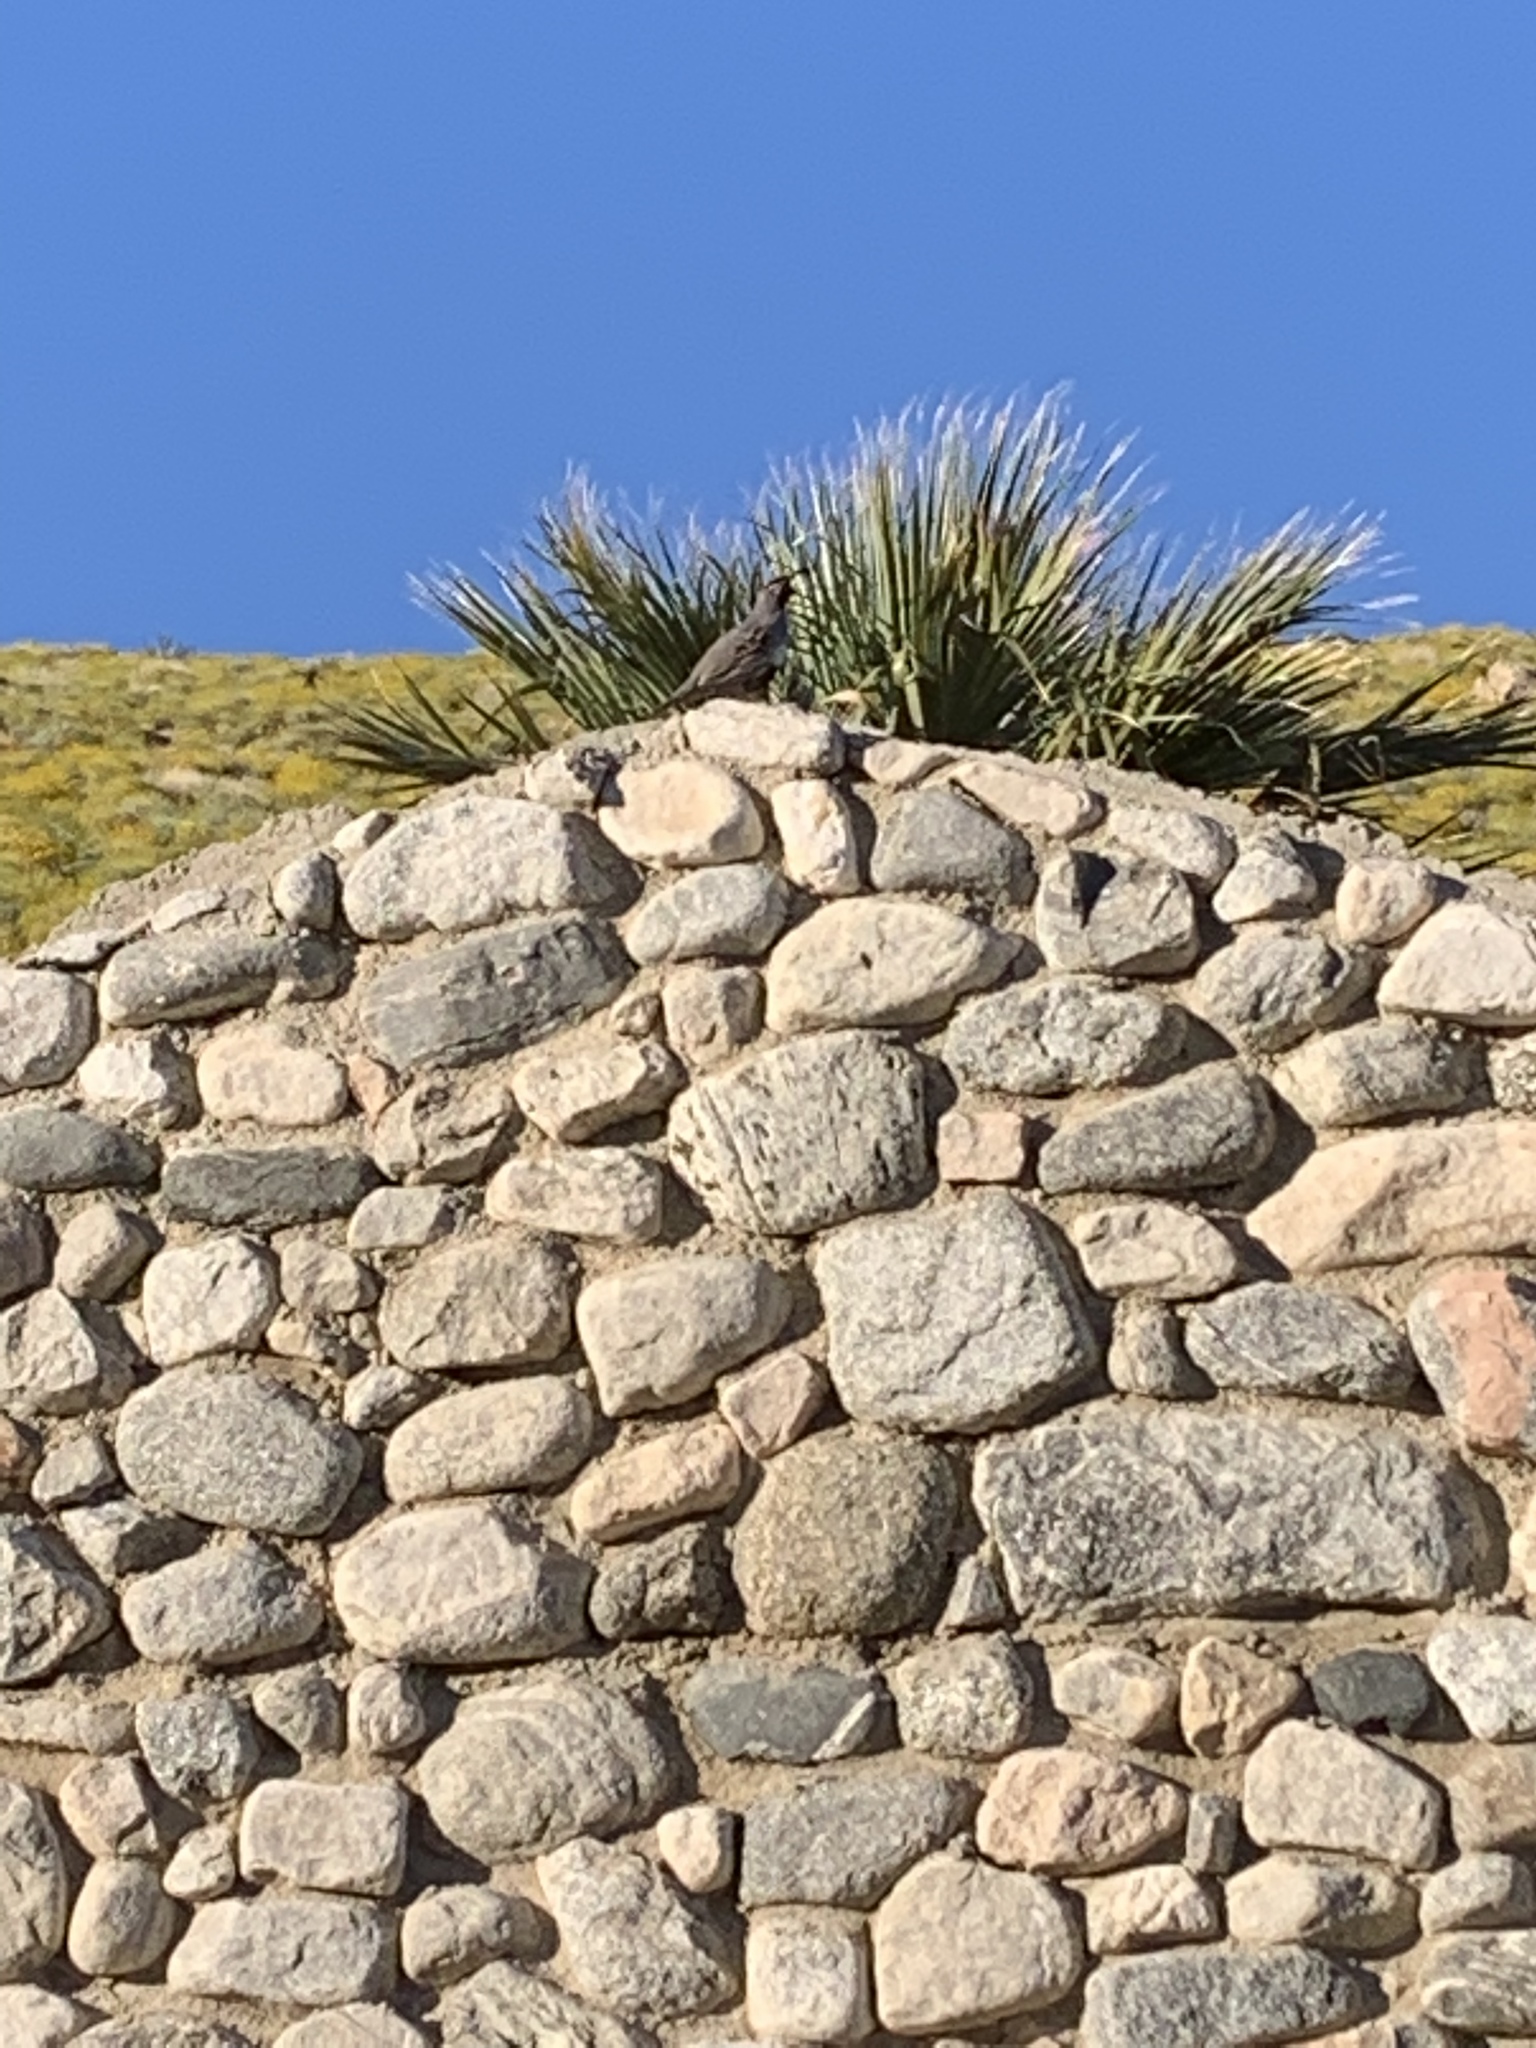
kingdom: Animalia
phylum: Chordata
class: Aves
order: Galliformes
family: Odontophoridae
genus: Callipepla
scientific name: Callipepla gambelii
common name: Gambel's quail
